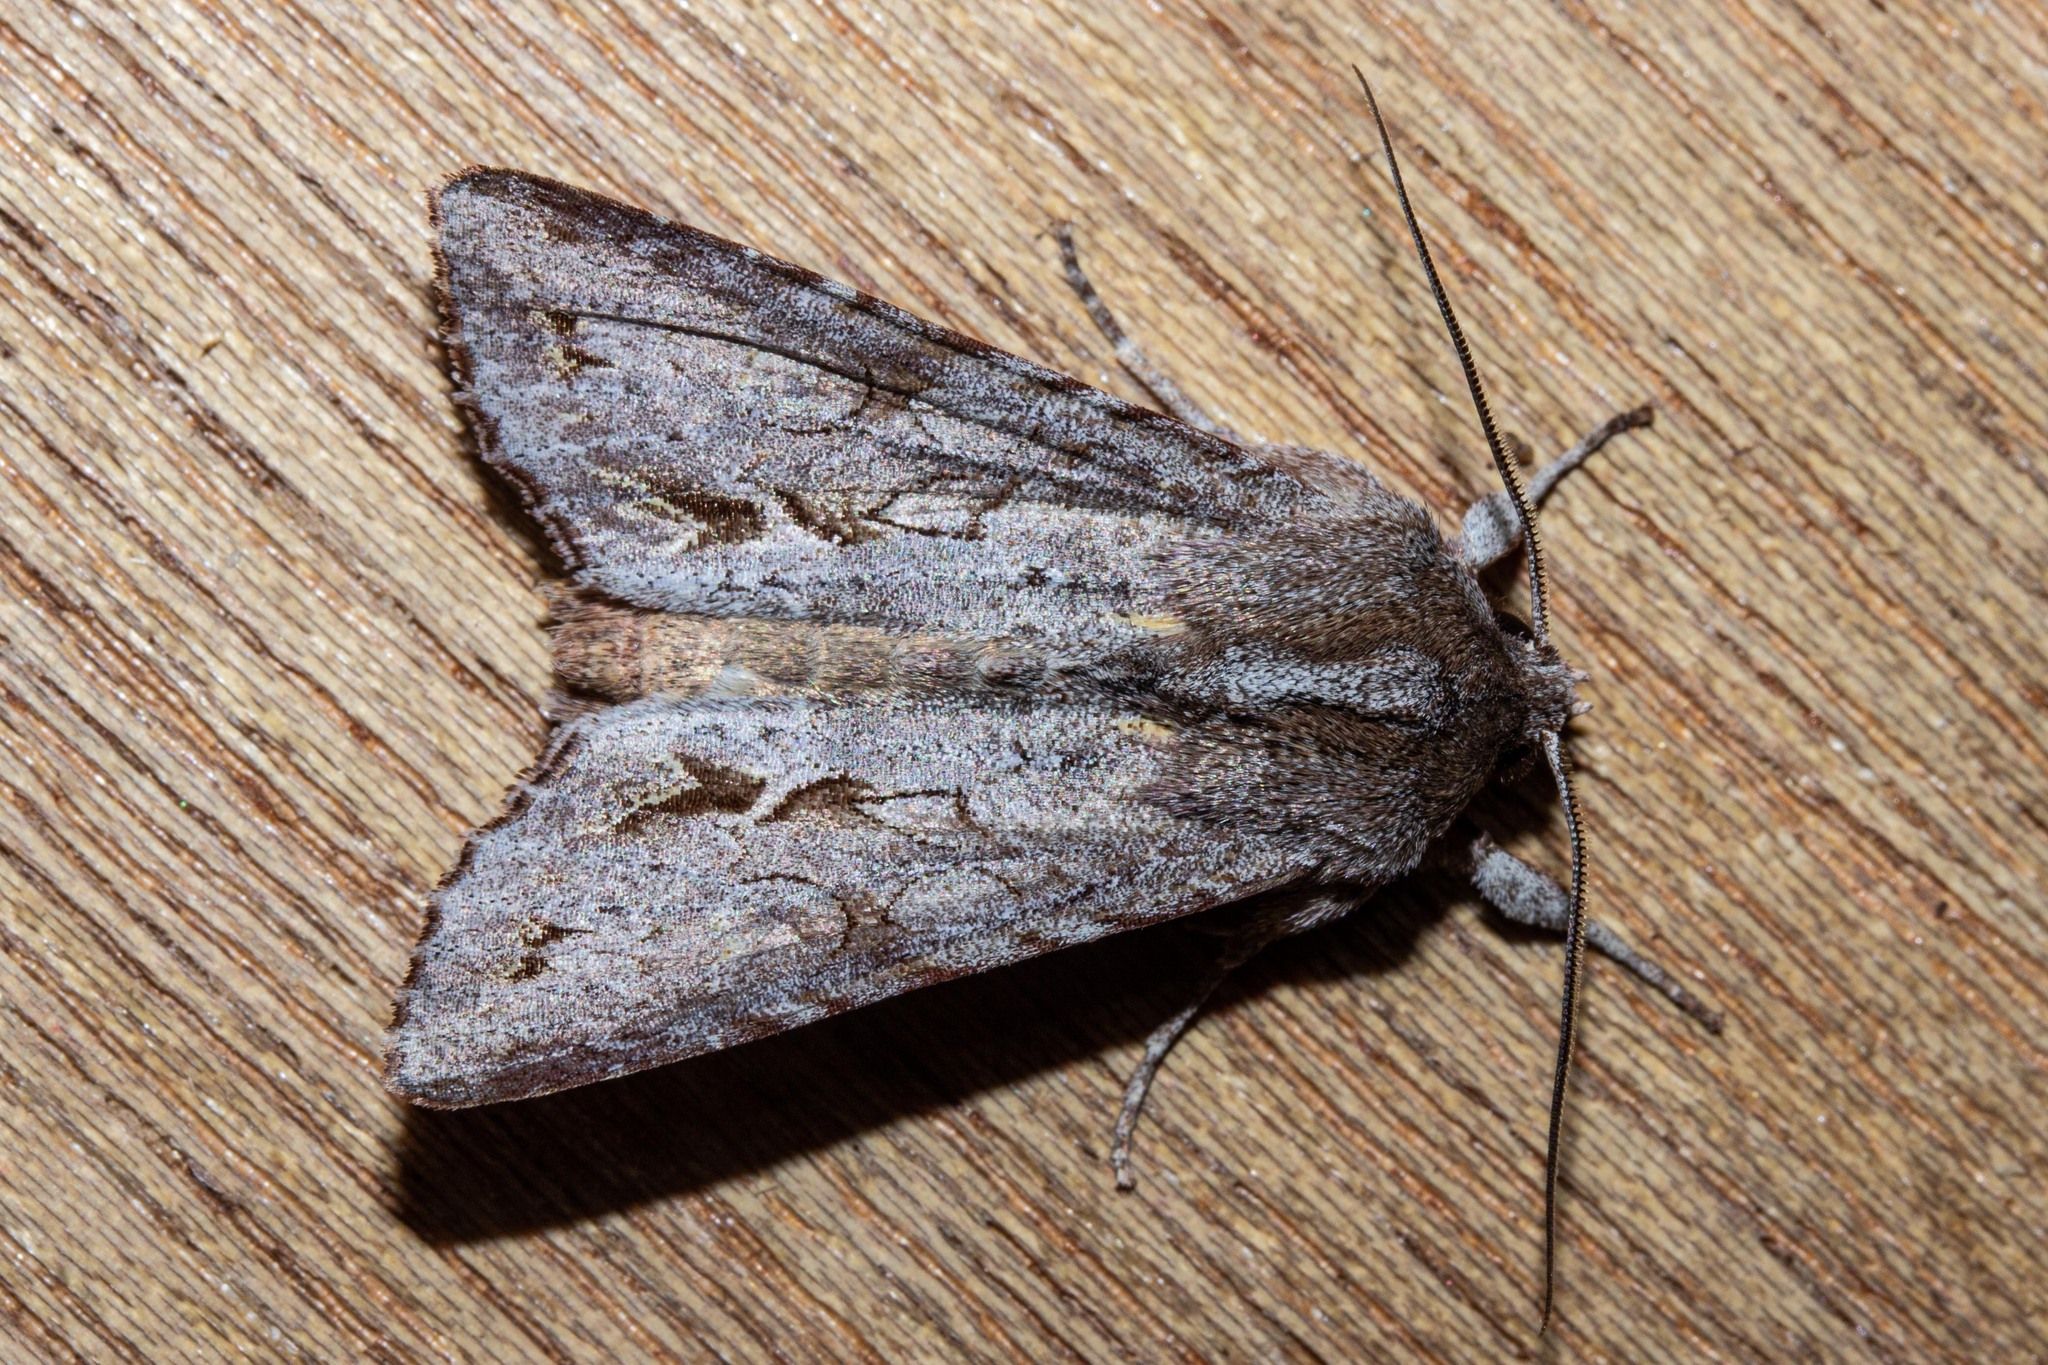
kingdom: Animalia
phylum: Arthropoda
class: Insecta
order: Lepidoptera
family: Noctuidae
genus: Ichneutica
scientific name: Ichneutica
